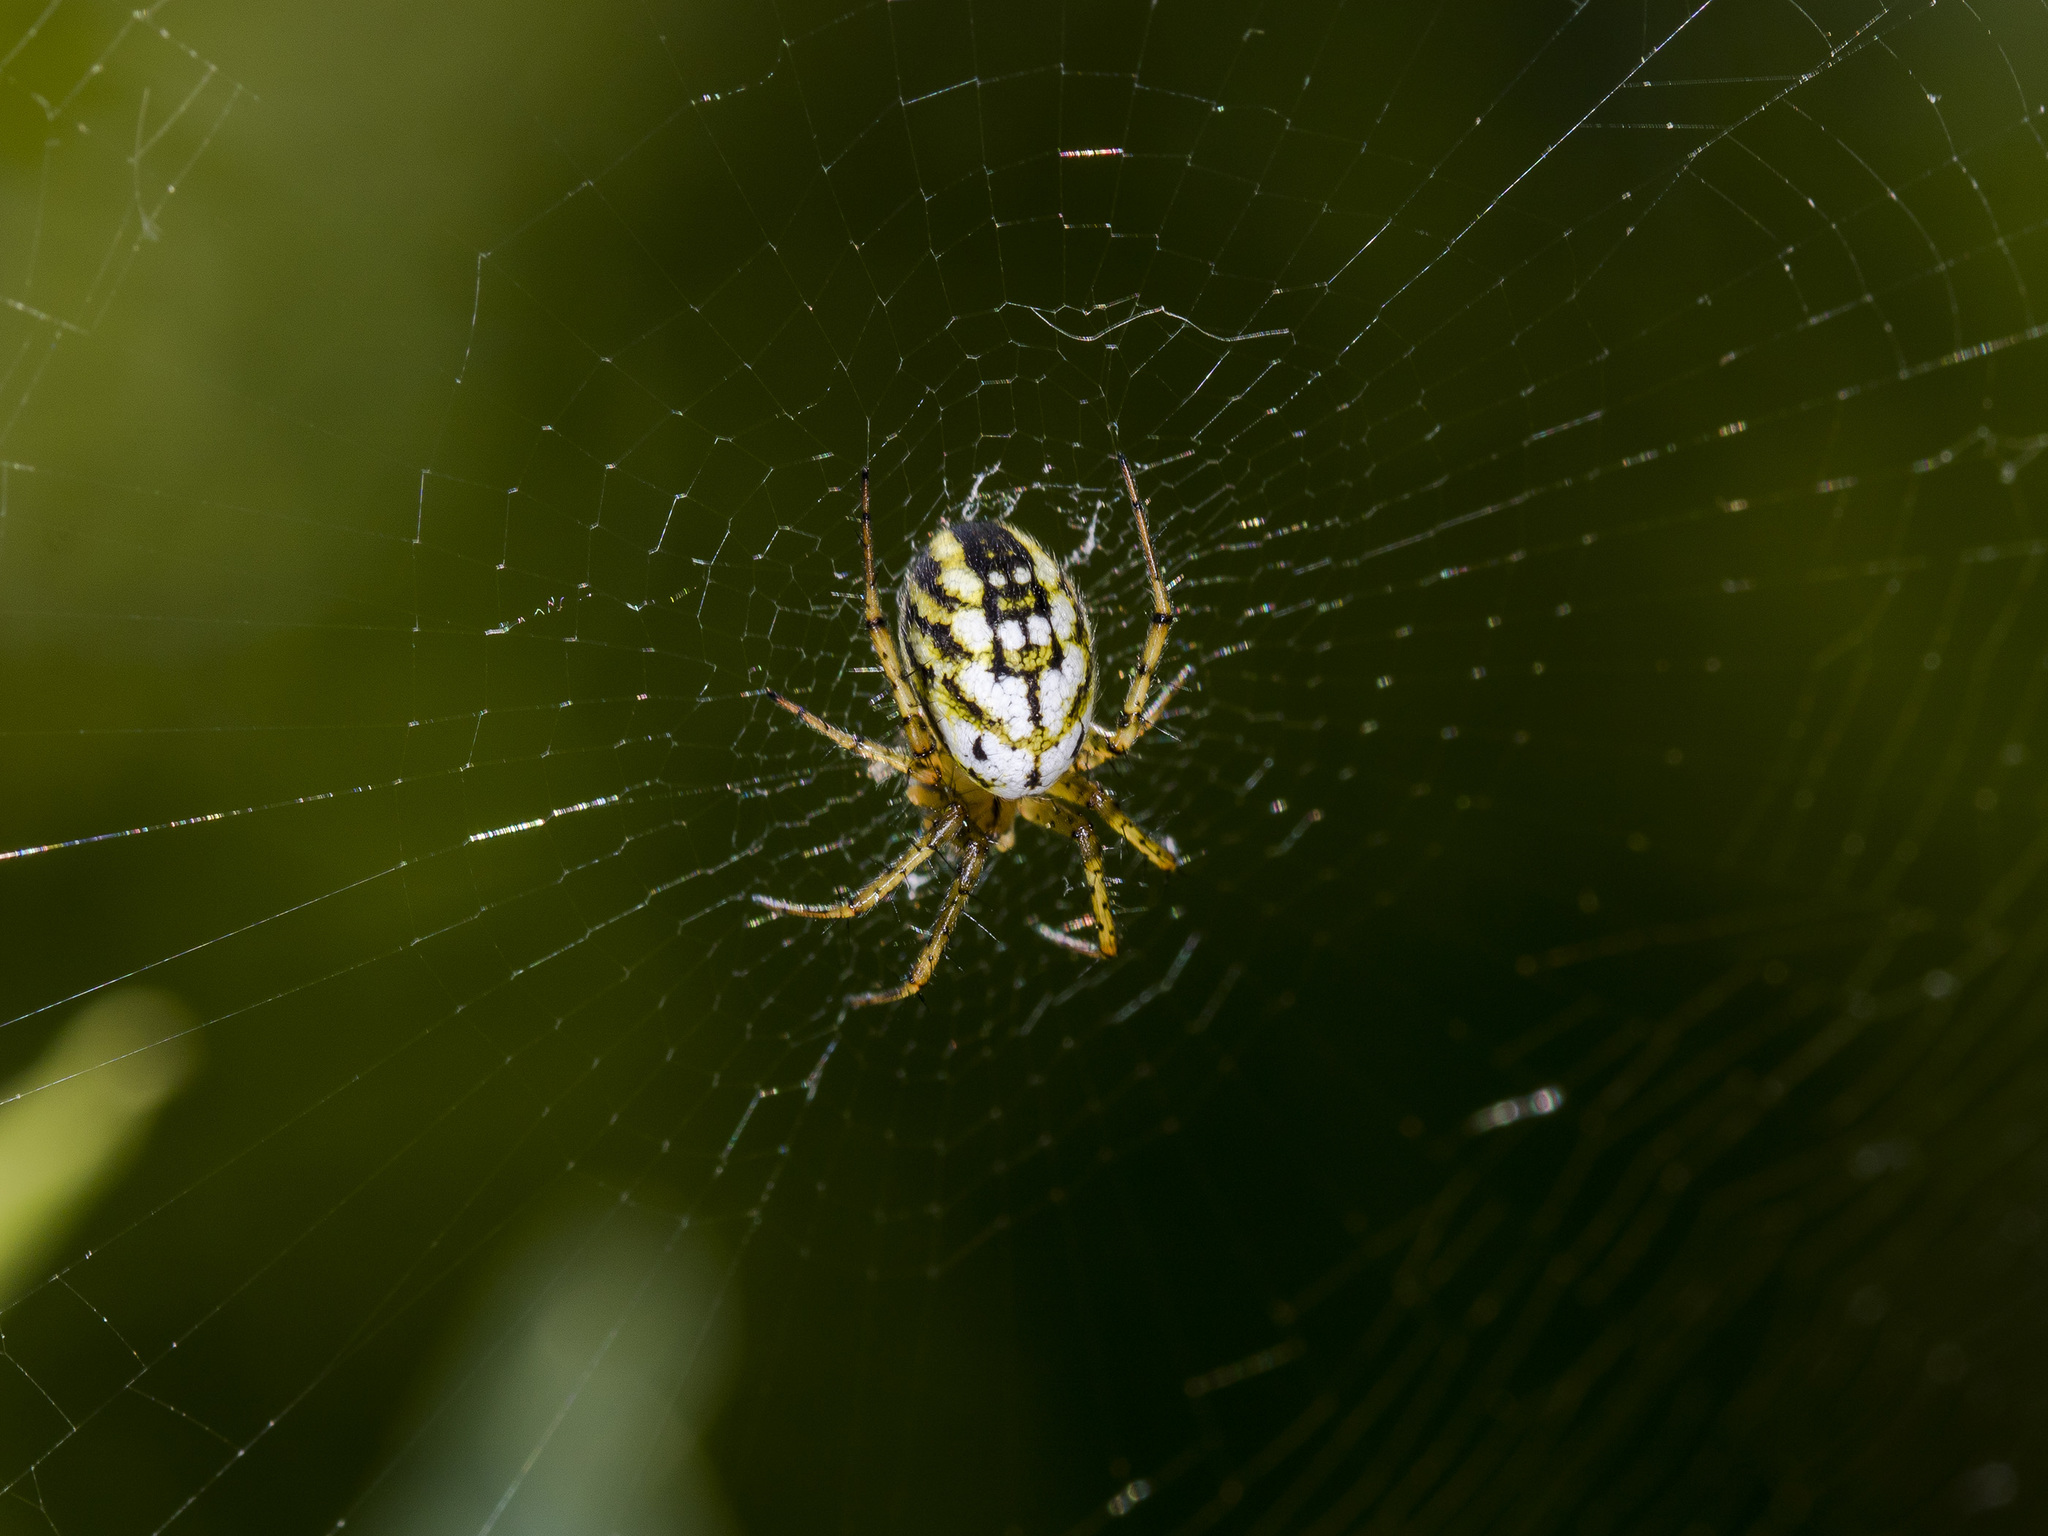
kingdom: Animalia
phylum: Arthropoda
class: Arachnida
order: Araneae
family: Araneidae
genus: Mangora
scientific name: Mangora acalypha
